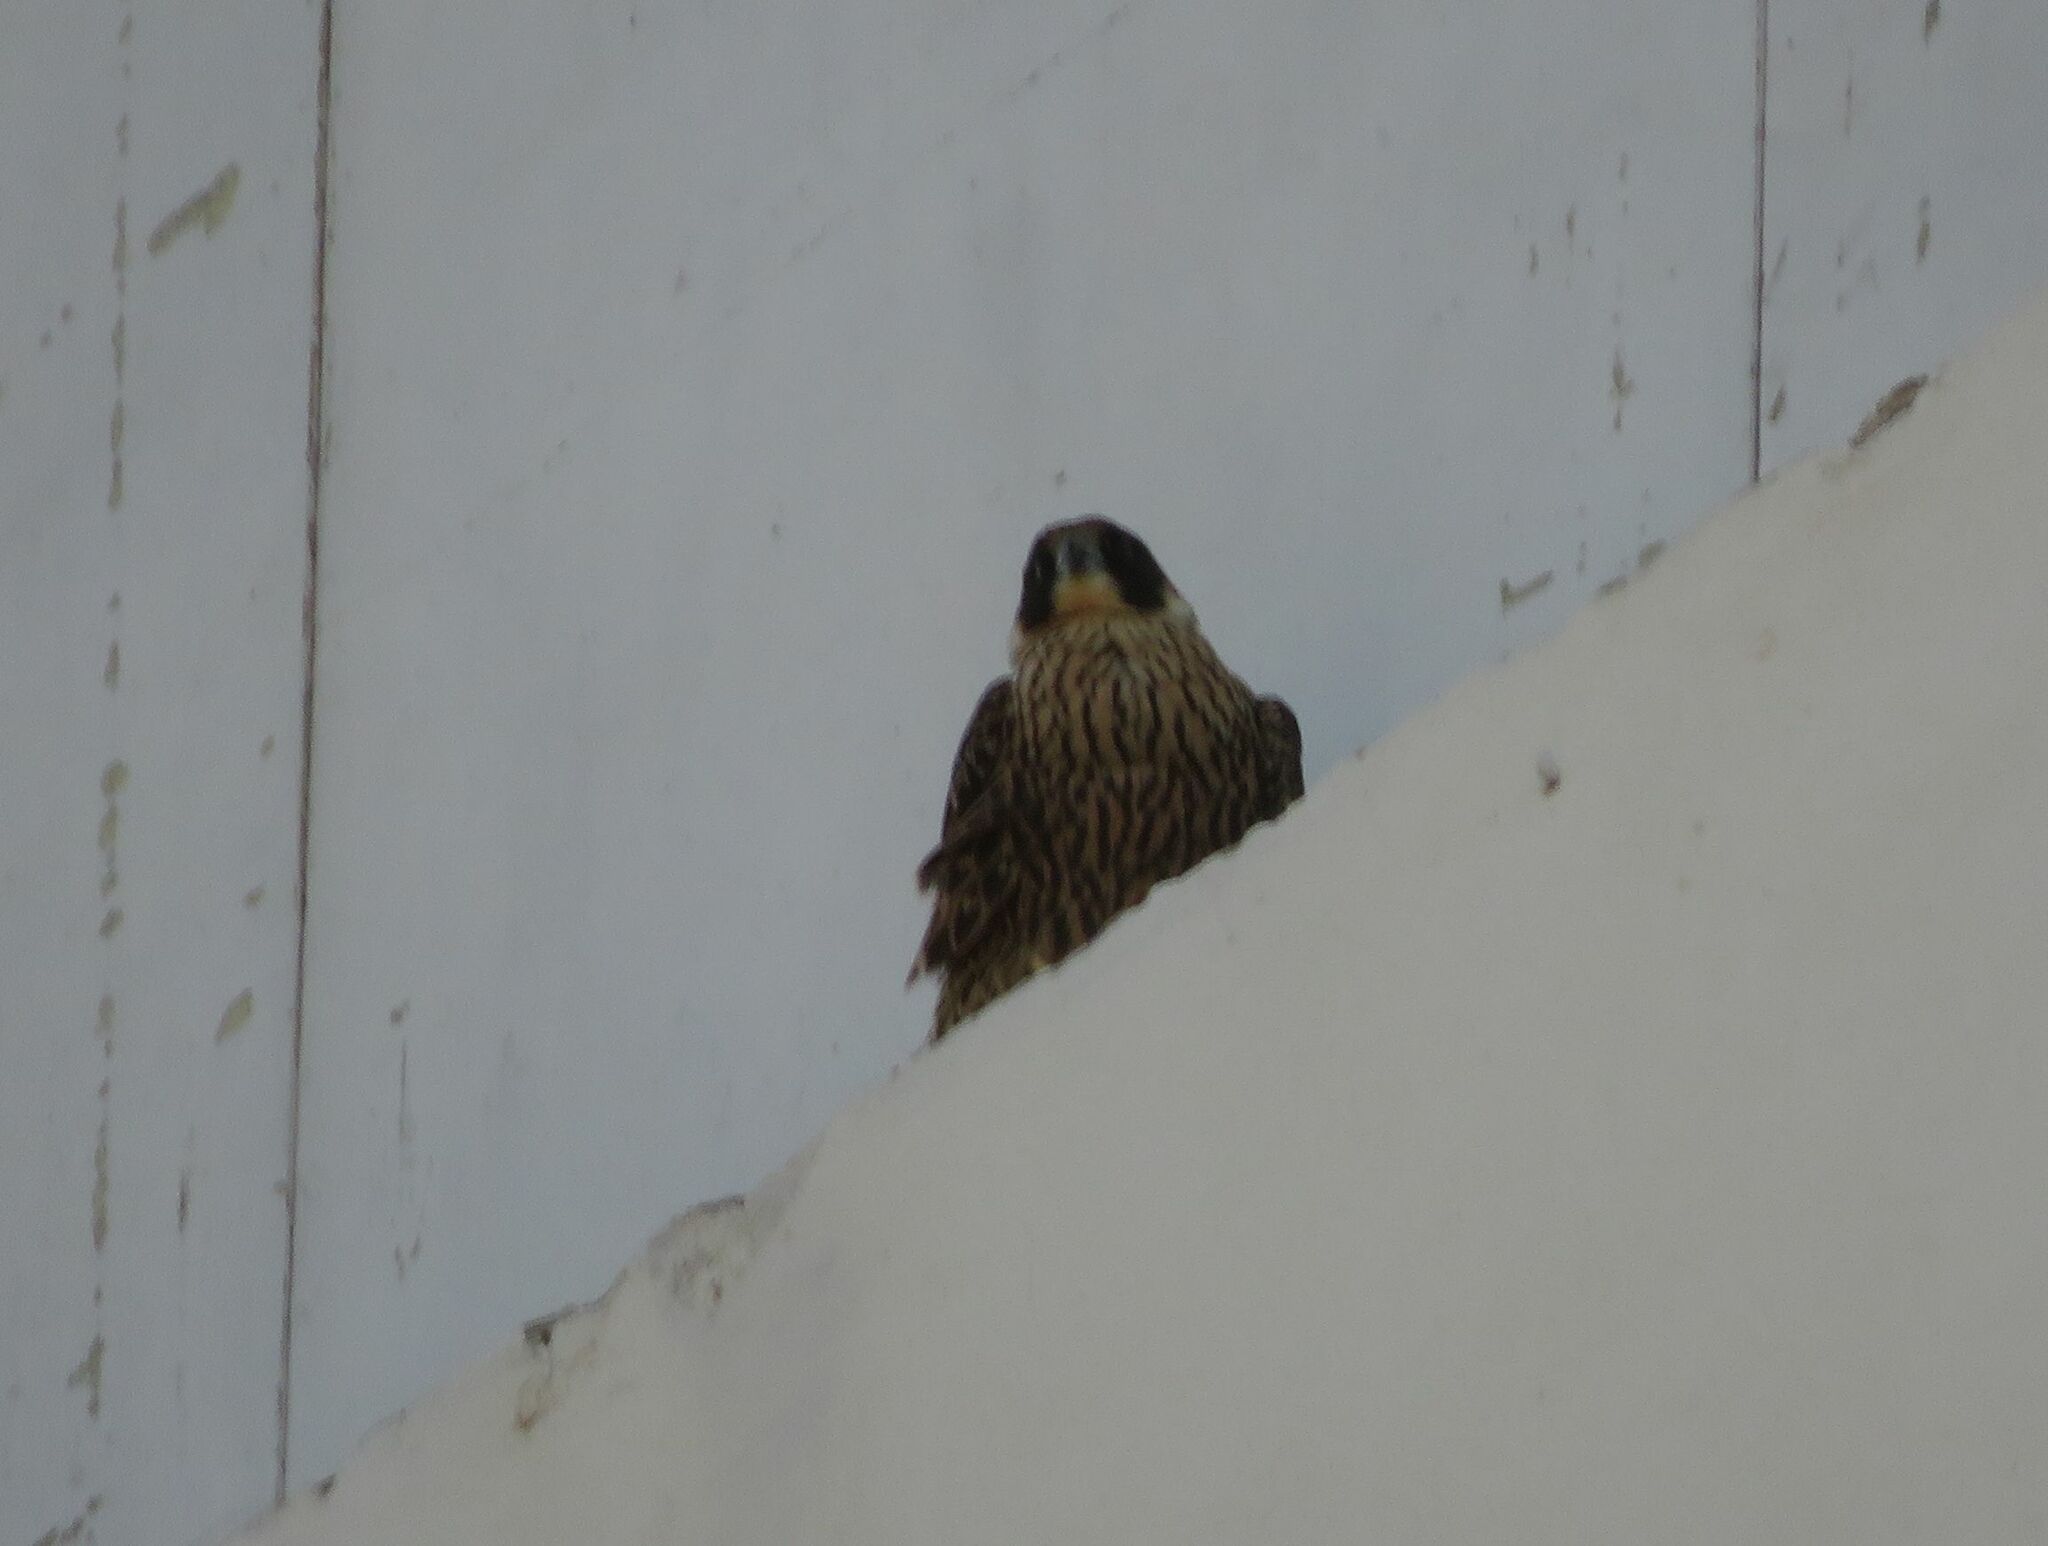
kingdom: Animalia
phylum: Chordata
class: Aves
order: Falconiformes
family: Falconidae
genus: Falco
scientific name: Falco peregrinus
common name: Peregrine falcon
